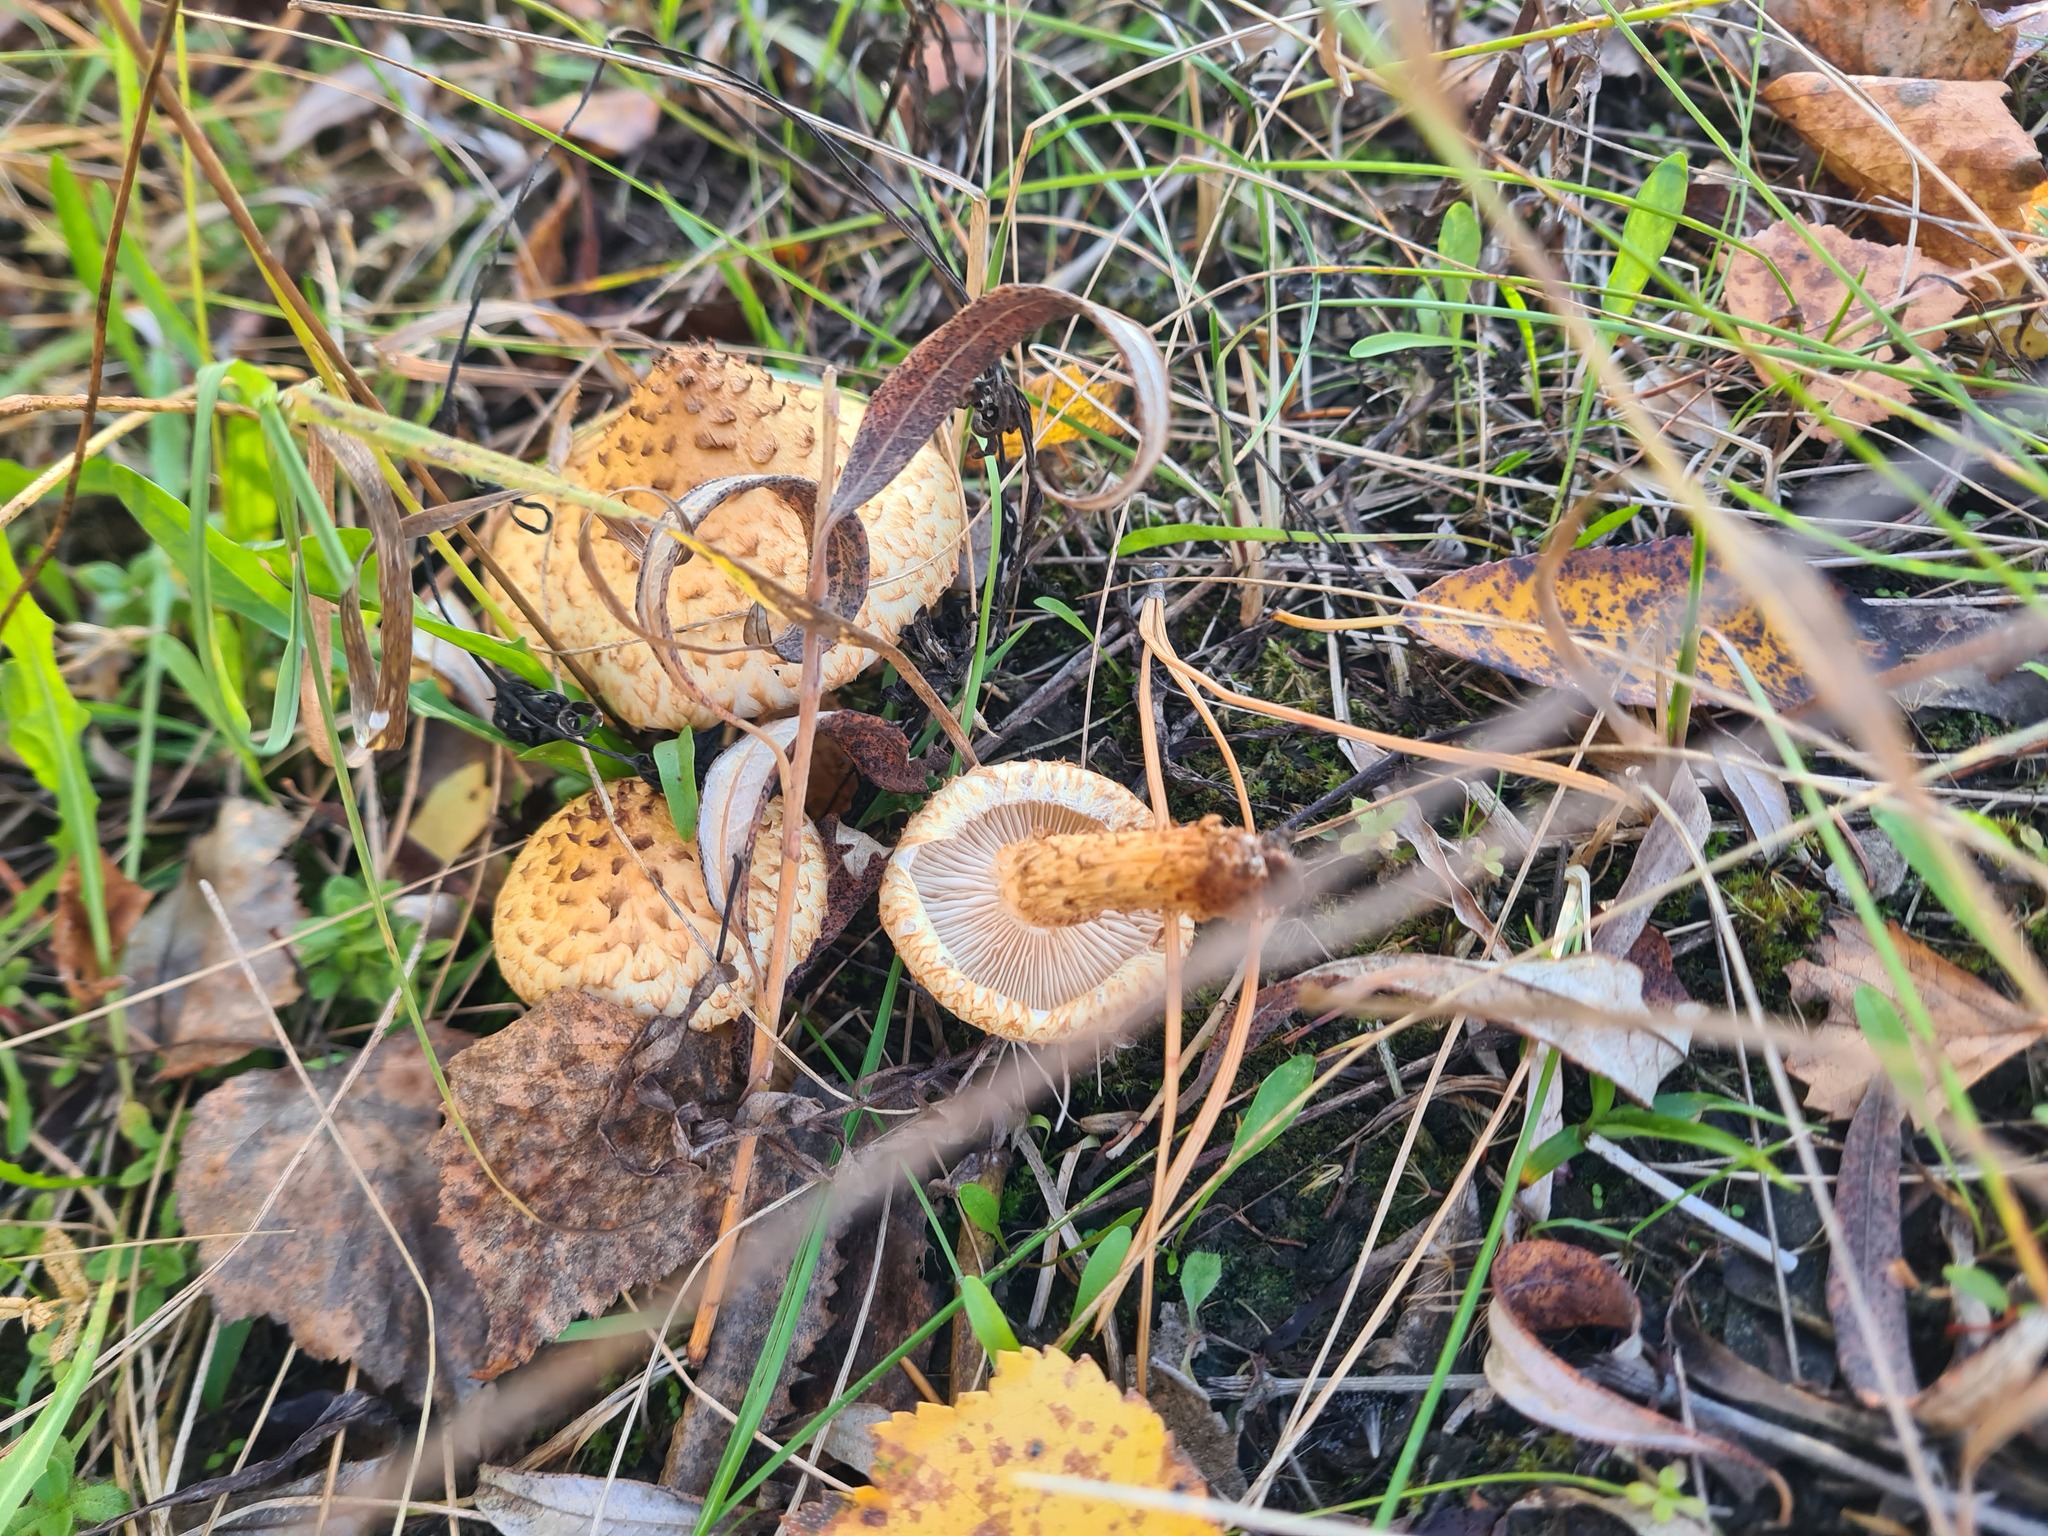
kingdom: Fungi
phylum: Basidiomycota
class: Agaricomycetes
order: Agaricales
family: Strophariaceae
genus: Pholiota
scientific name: Pholiota kodiakensis
